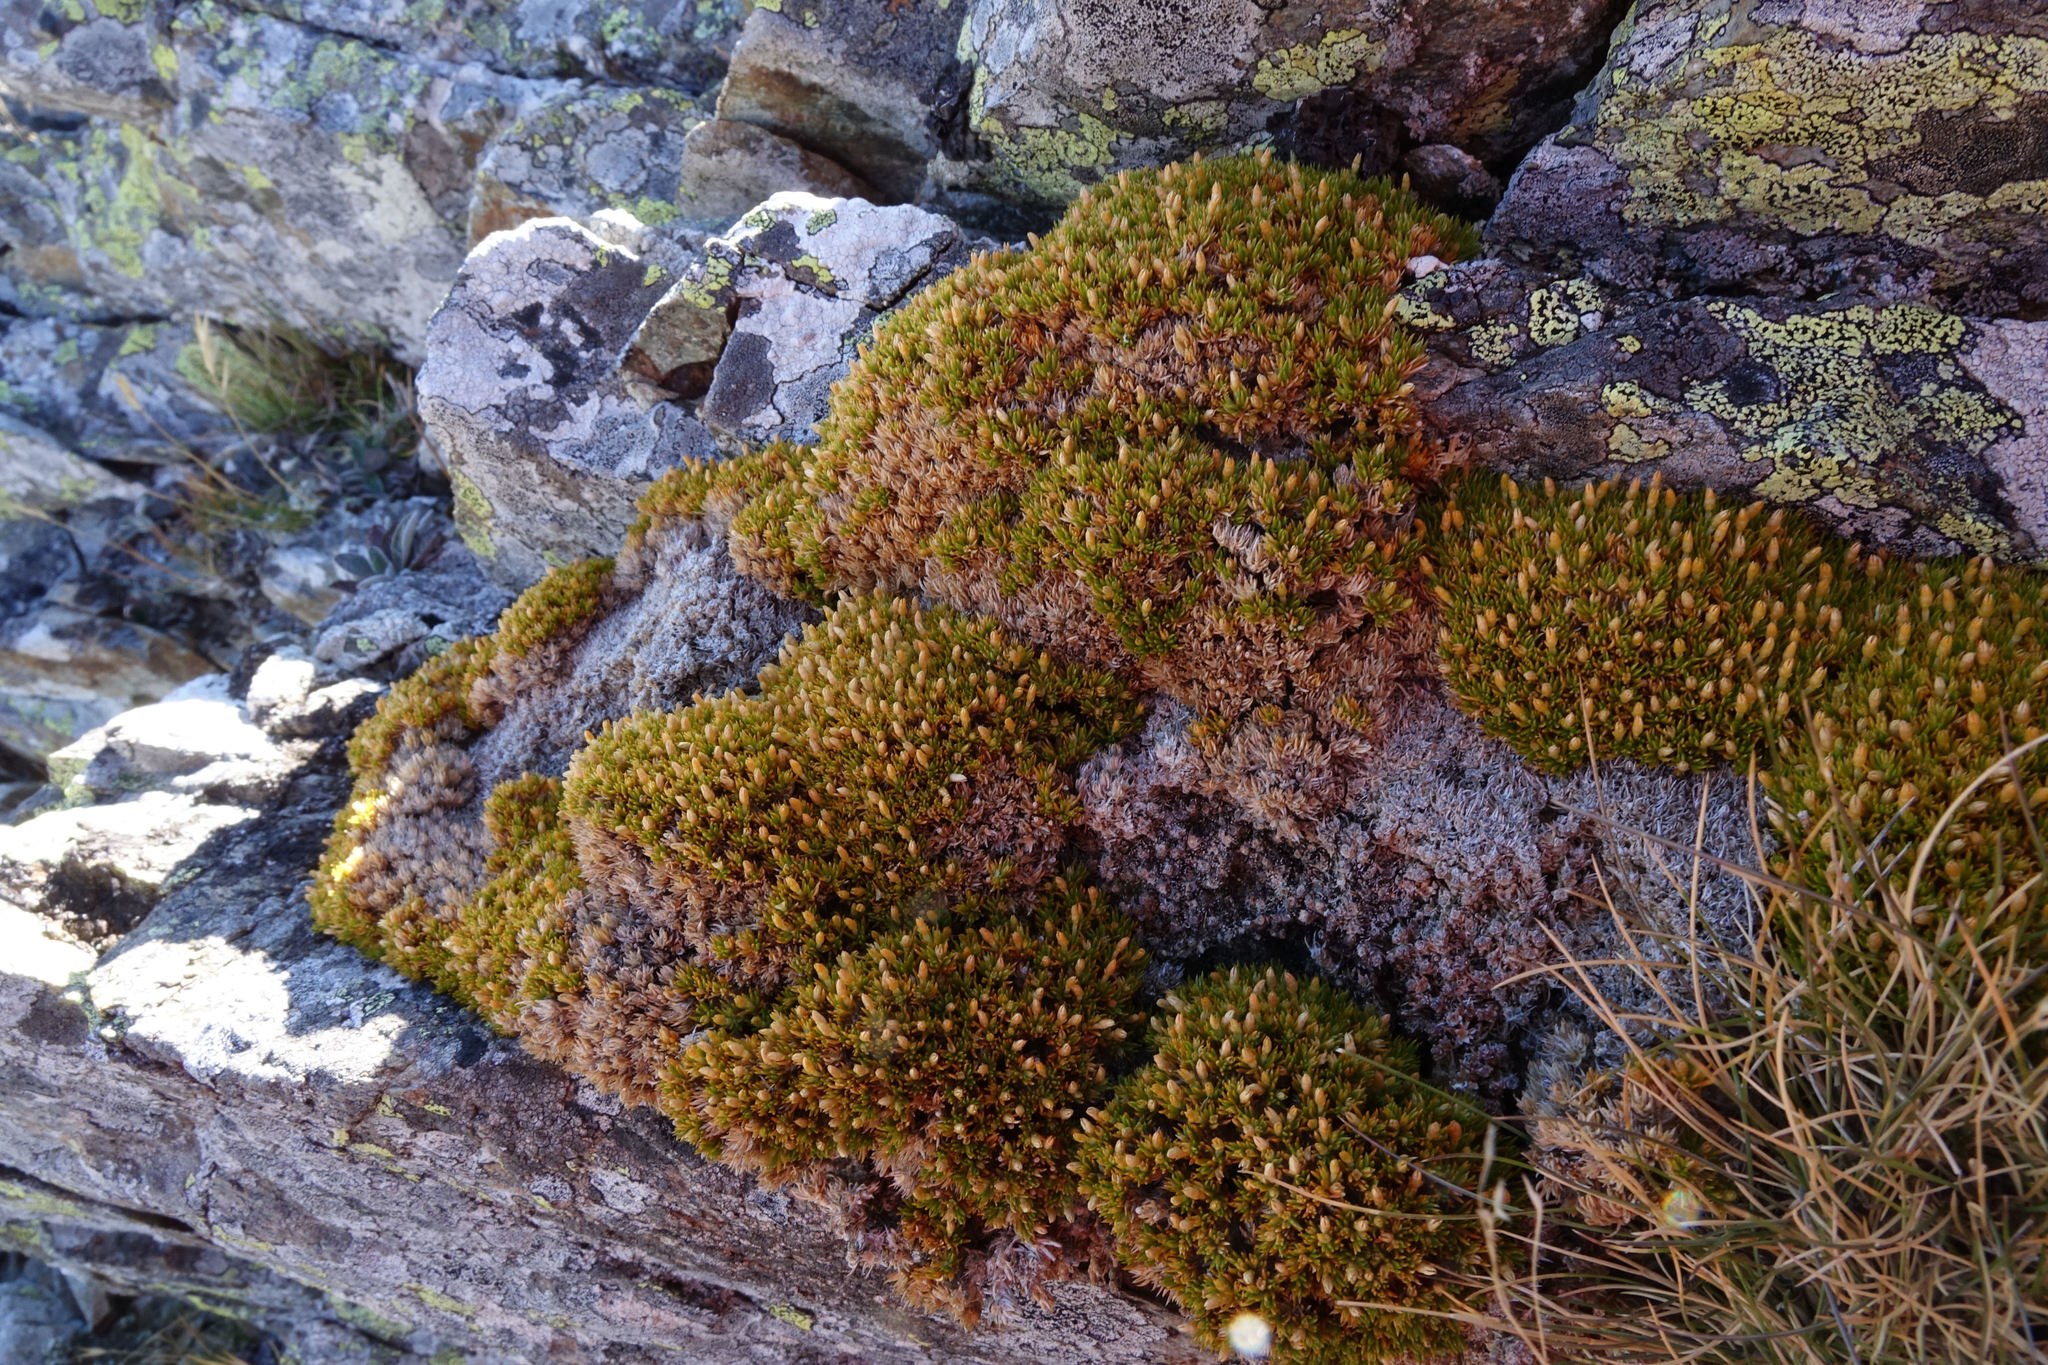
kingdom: Plantae
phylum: Tracheophyta
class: Magnoliopsida
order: Caryophyllales
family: Caryophyllaceae
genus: Scleranthus
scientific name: Scleranthus uniflorus
